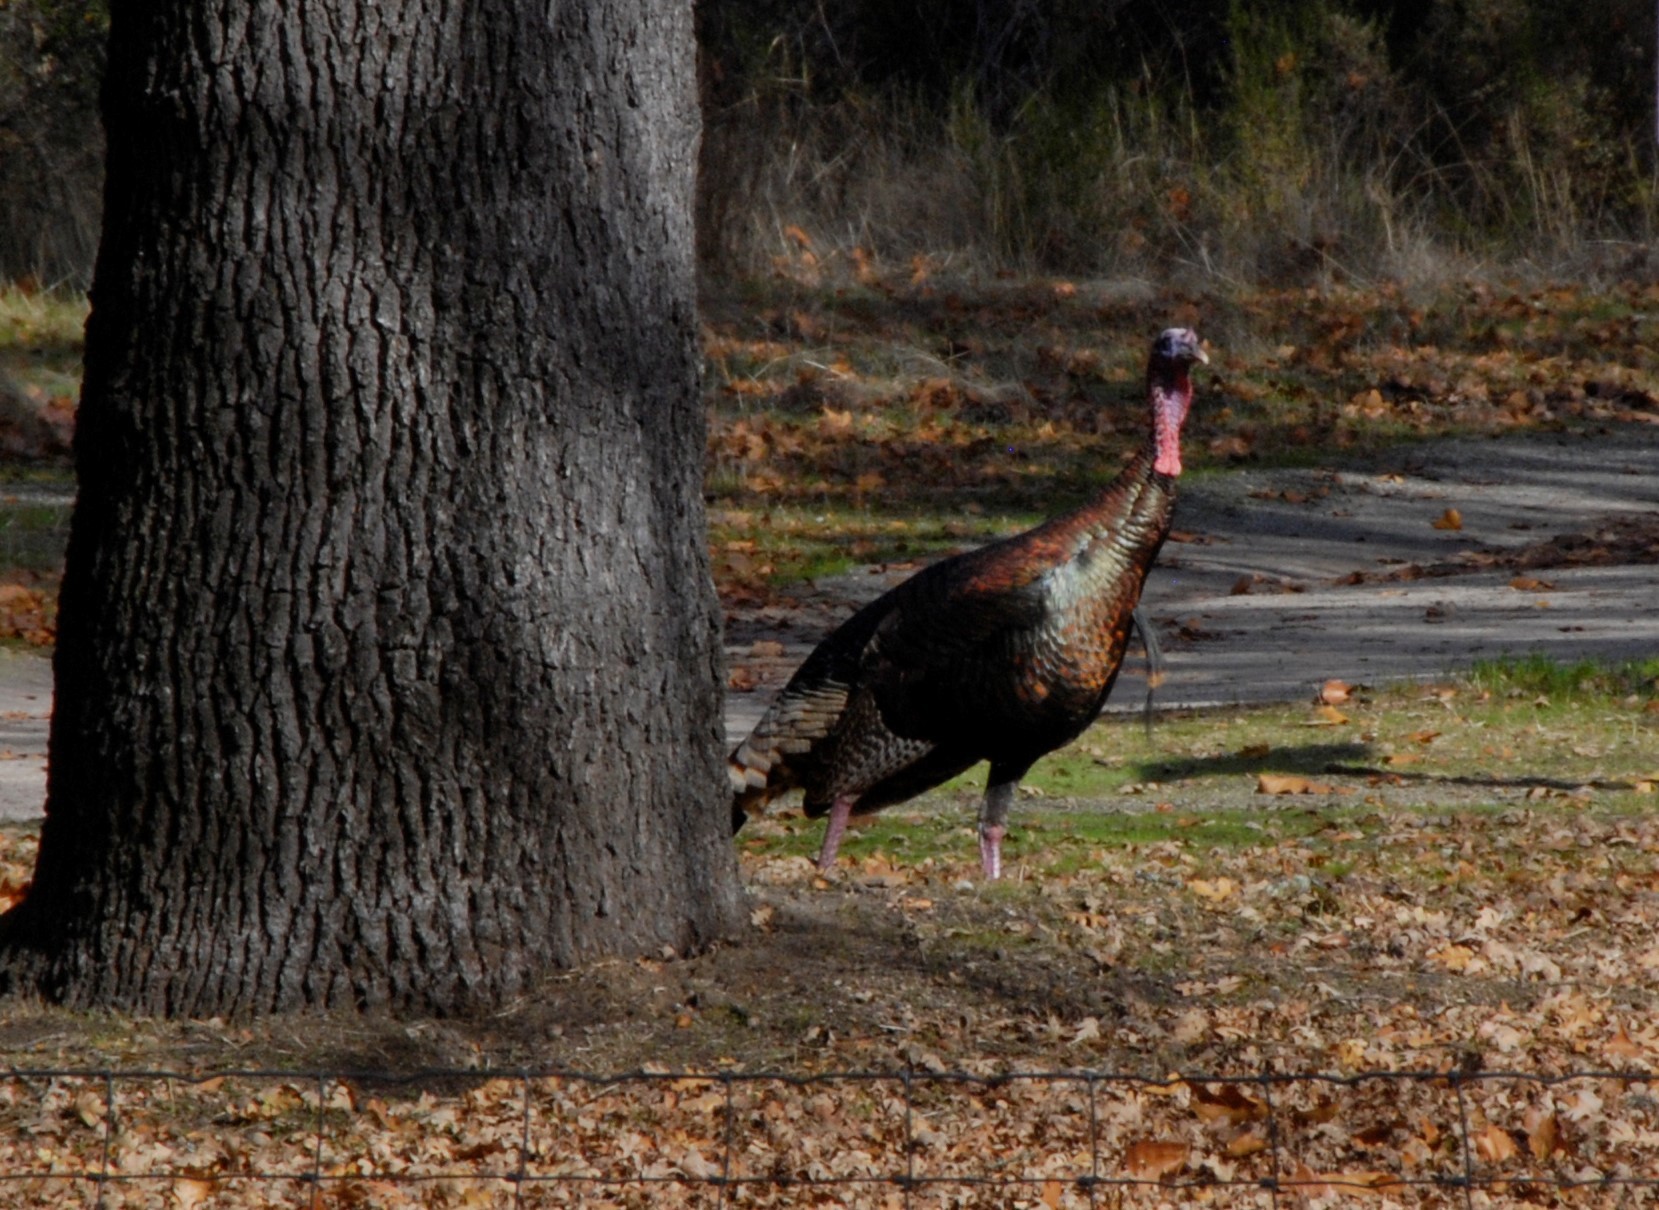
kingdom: Animalia
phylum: Chordata
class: Aves
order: Galliformes
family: Phasianidae
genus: Meleagris
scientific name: Meleagris gallopavo
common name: Wild turkey
